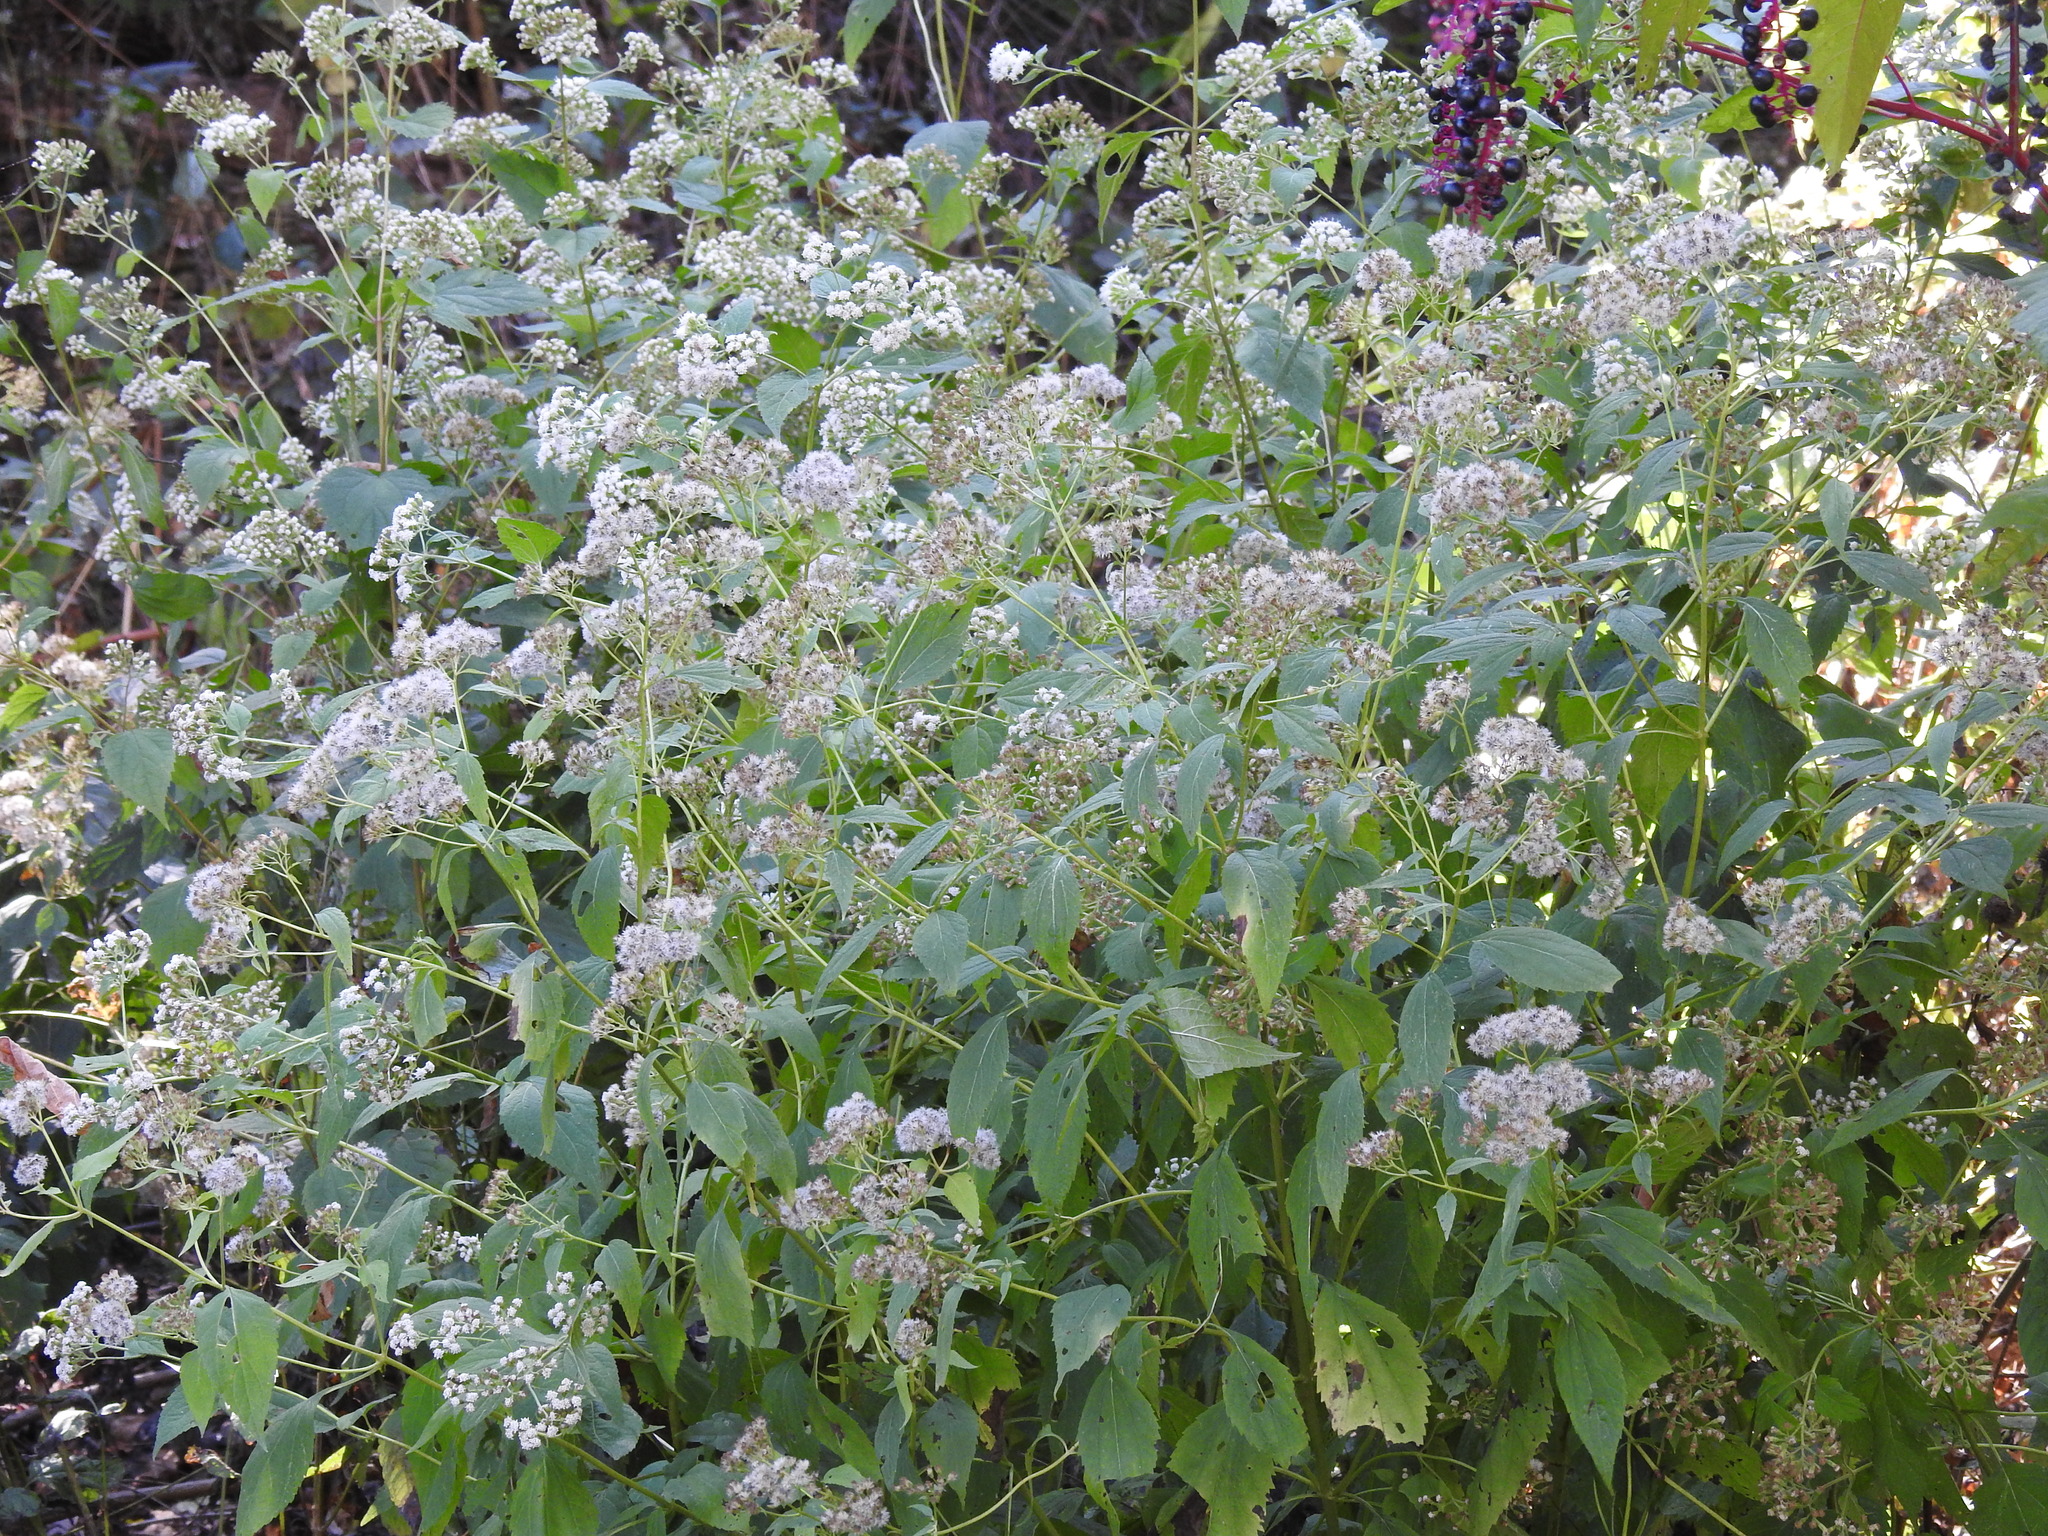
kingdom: Plantae
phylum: Tracheophyta
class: Magnoliopsida
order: Asterales
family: Asteraceae
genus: Ageratina
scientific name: Ageratina altissima
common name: White snakeroot
